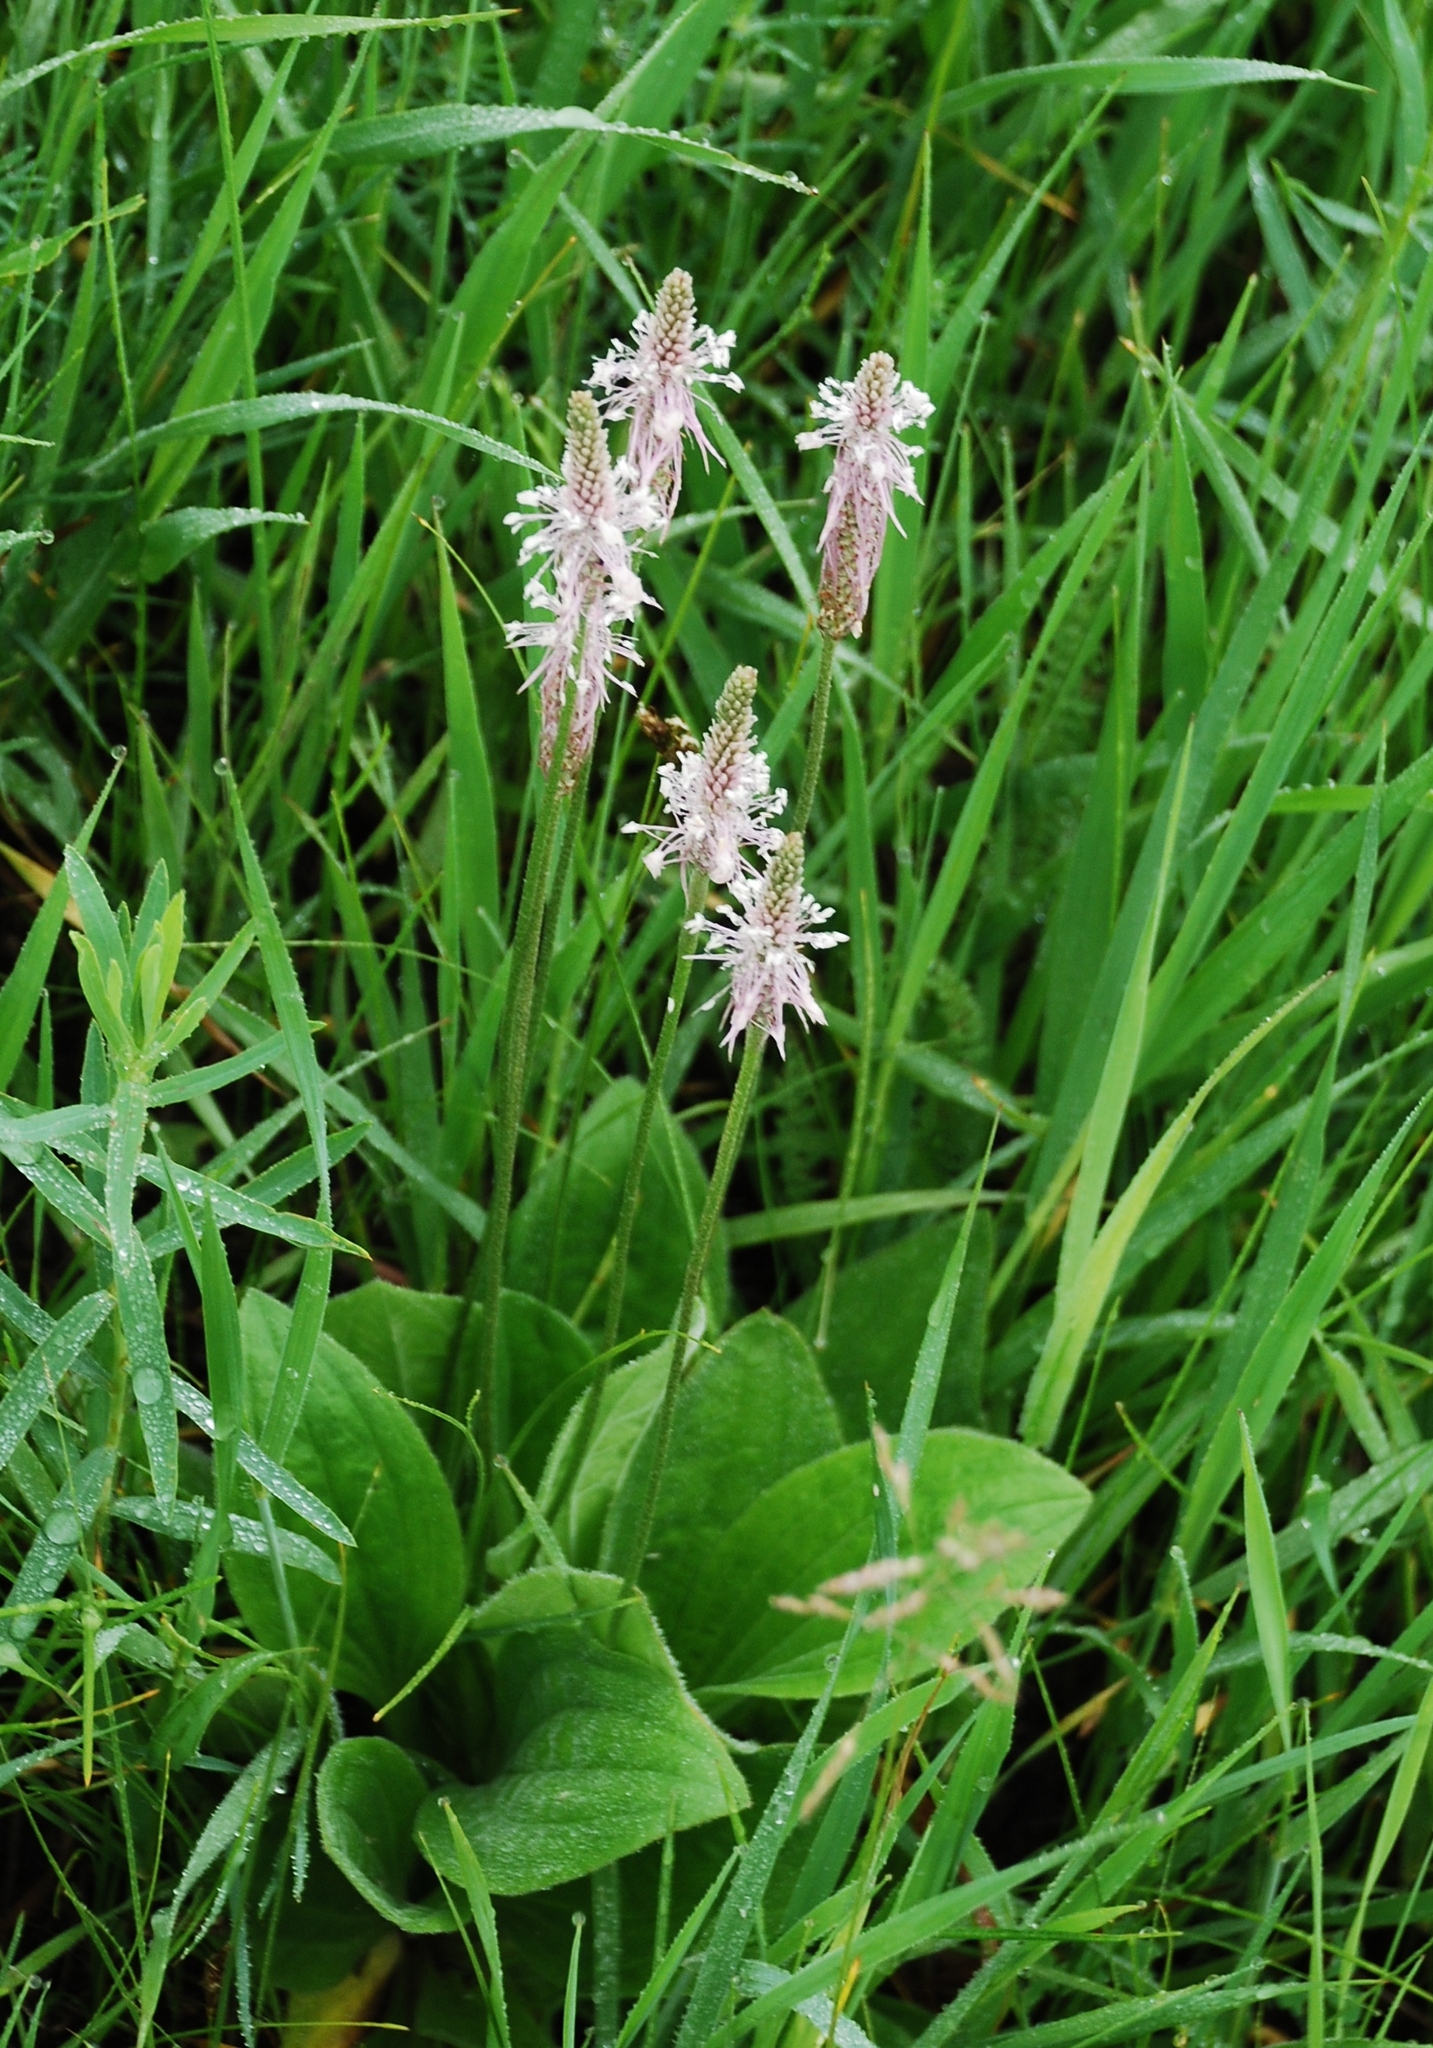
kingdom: Plantae
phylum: Tracheophyta
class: Magnoliopsida
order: Lamiales
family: Plantaginaceae
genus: Plantago
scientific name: Plantago media
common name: Hoary plantain
